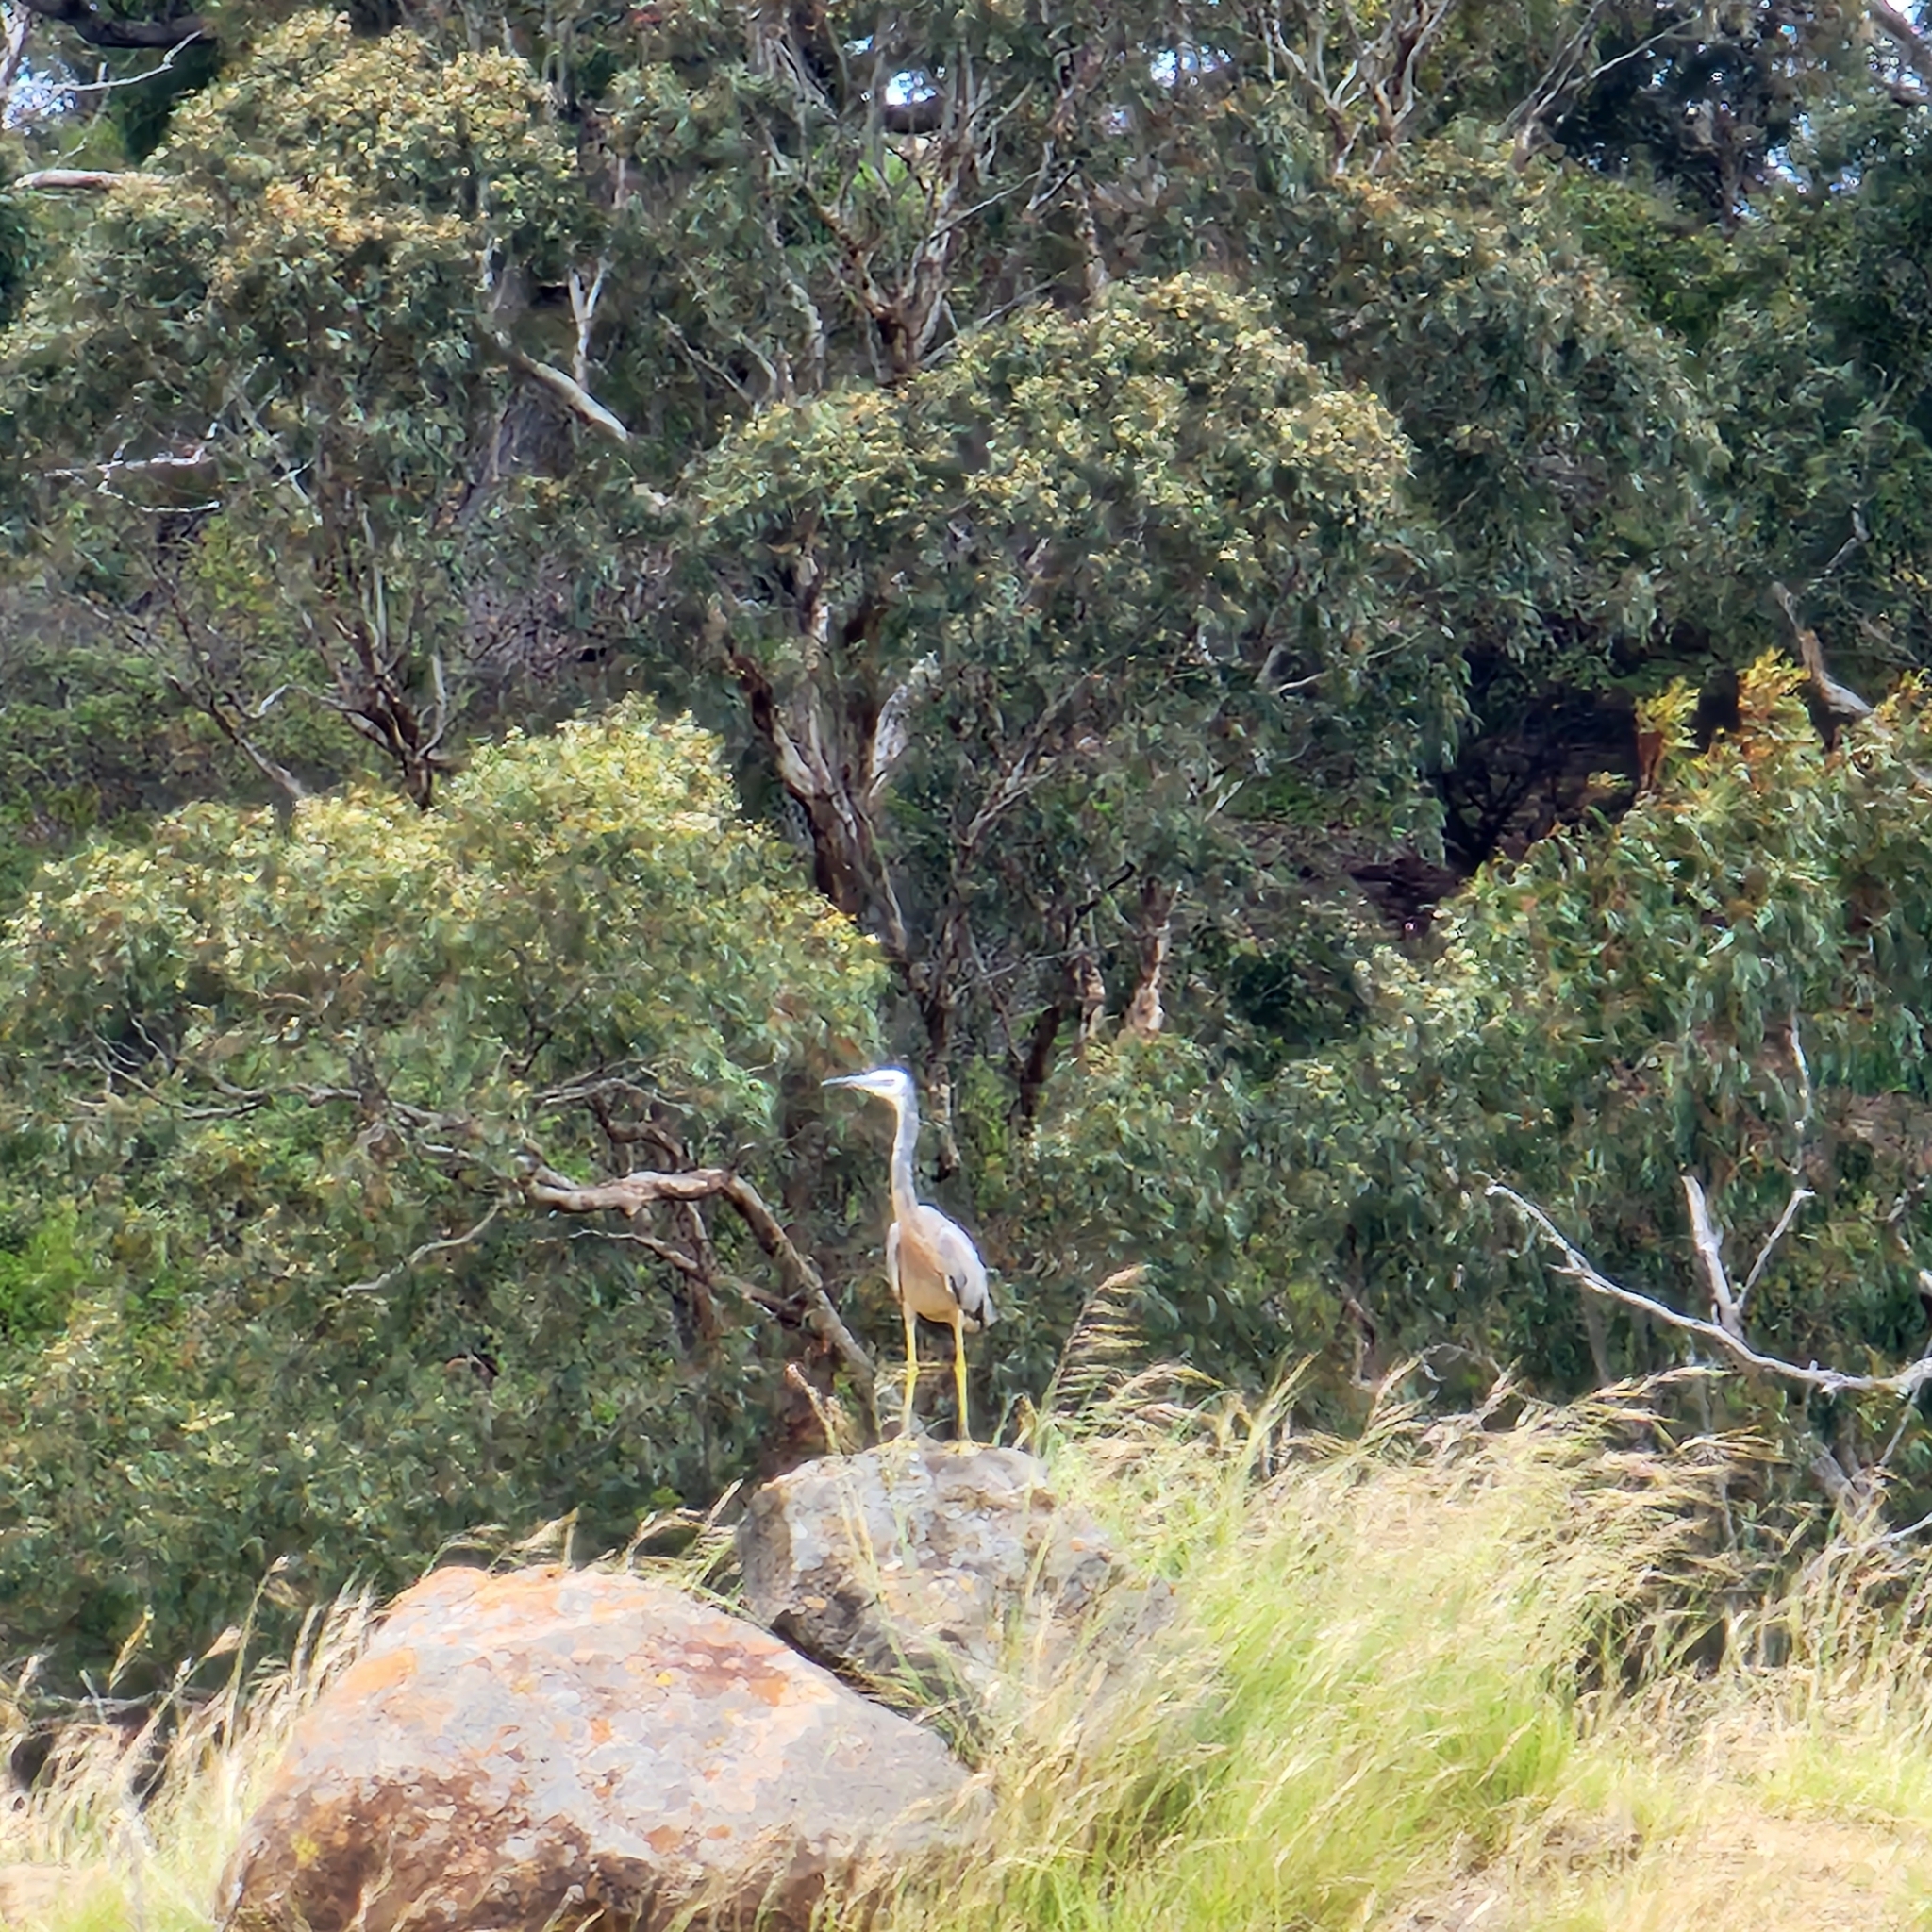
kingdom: Animalia
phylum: Chordata
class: Aves
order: Pelecaniformes
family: Ardeidae
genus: Egretta
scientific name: Egretta novaehollandiae
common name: White-faced heron
